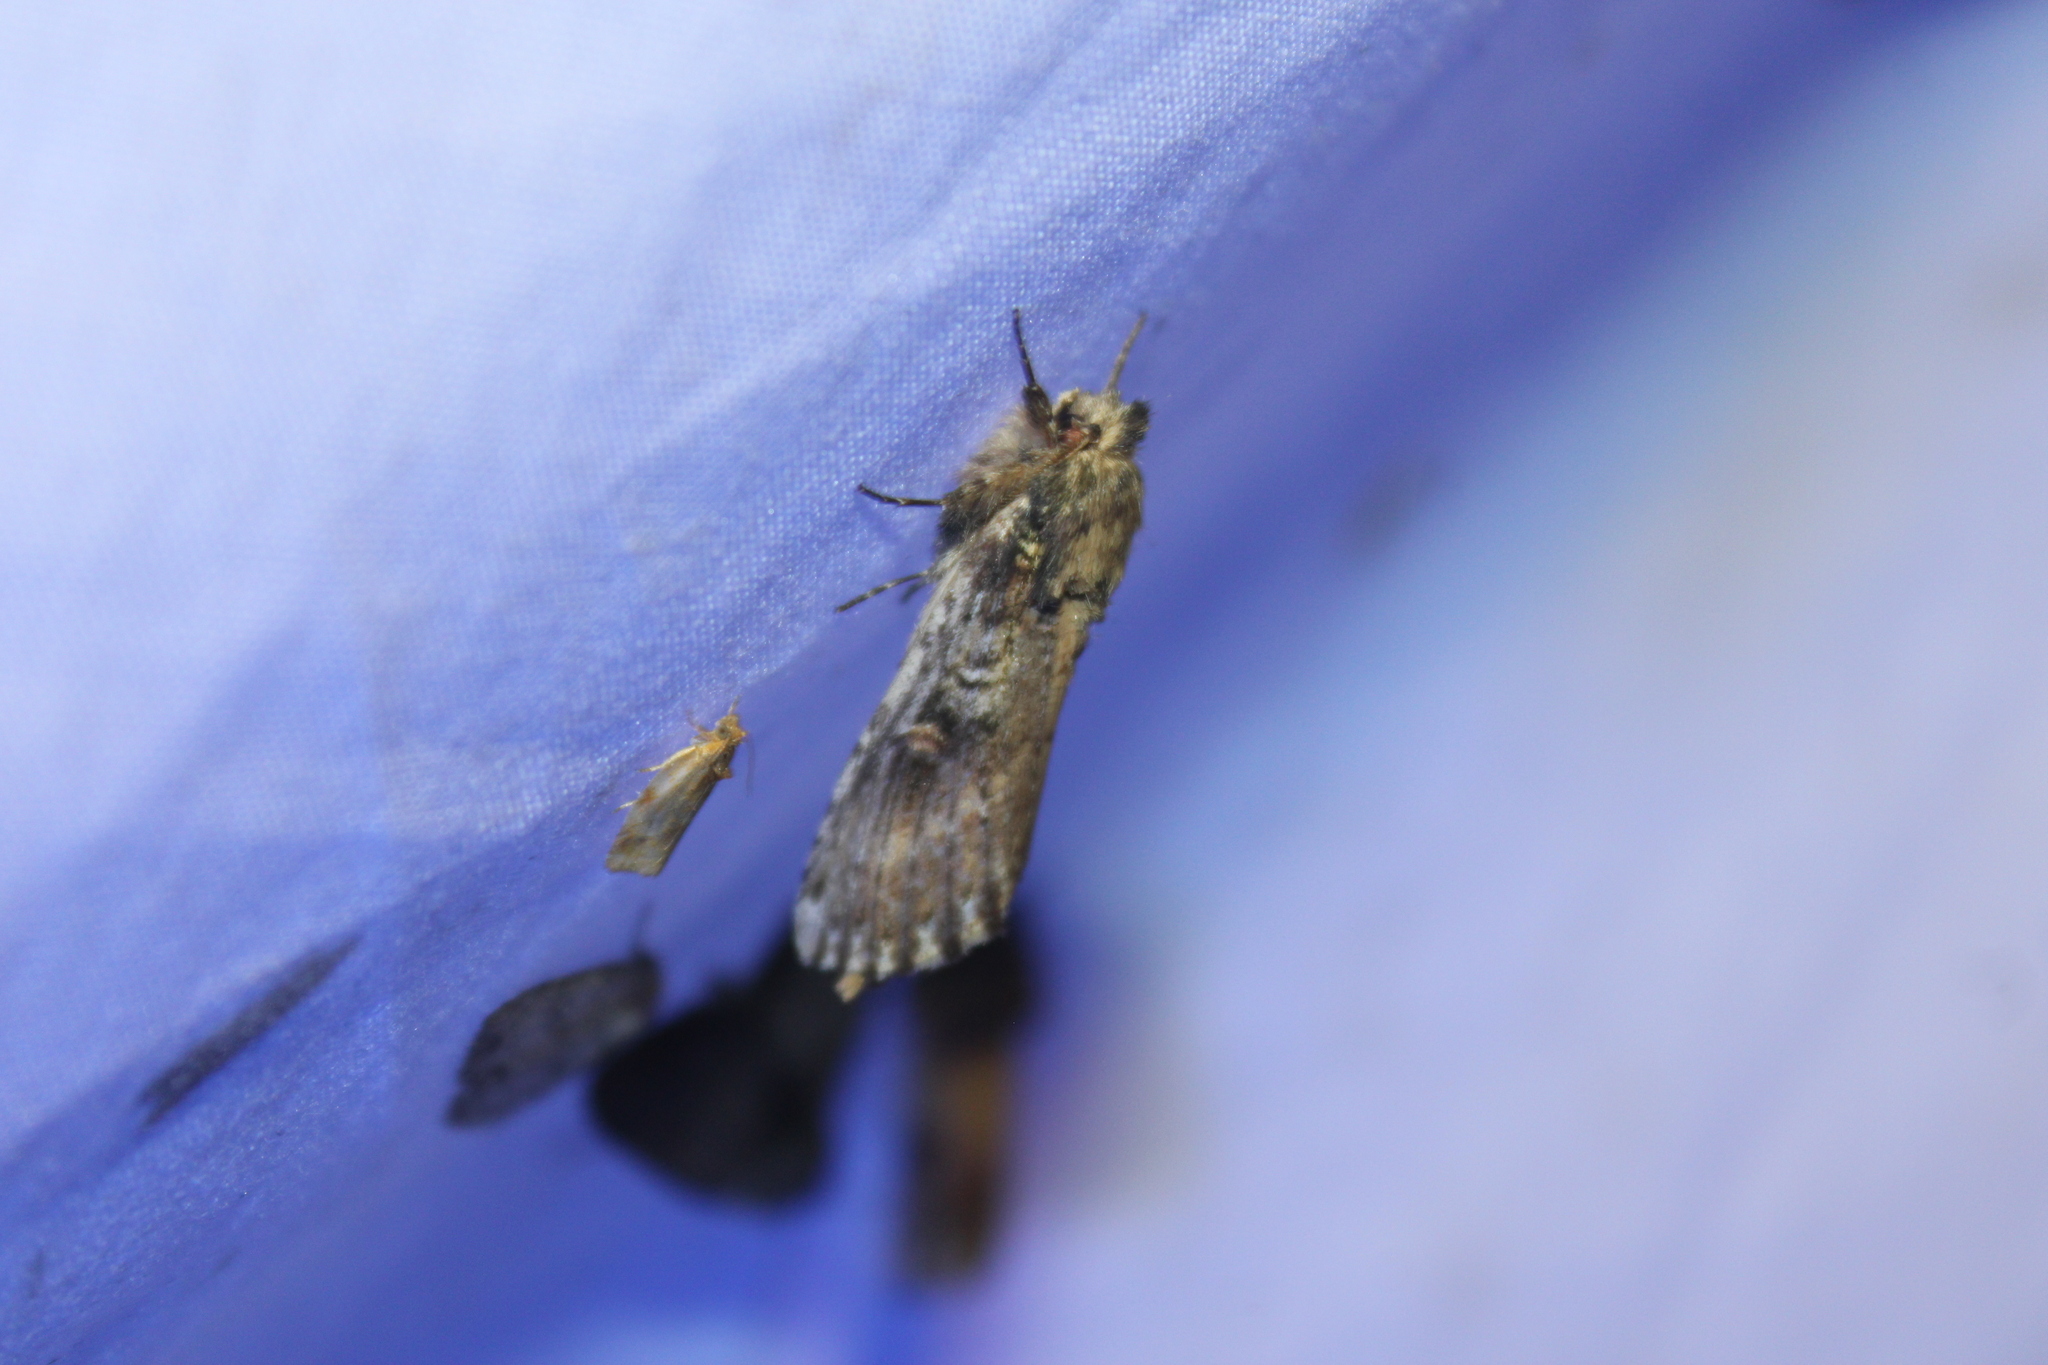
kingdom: Animalia
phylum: Arthropoda
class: Insecta
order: Lepidoptera
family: Notodontidae
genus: Schizura
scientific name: Schizura ipomaeae
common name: Morning-glory prominent
